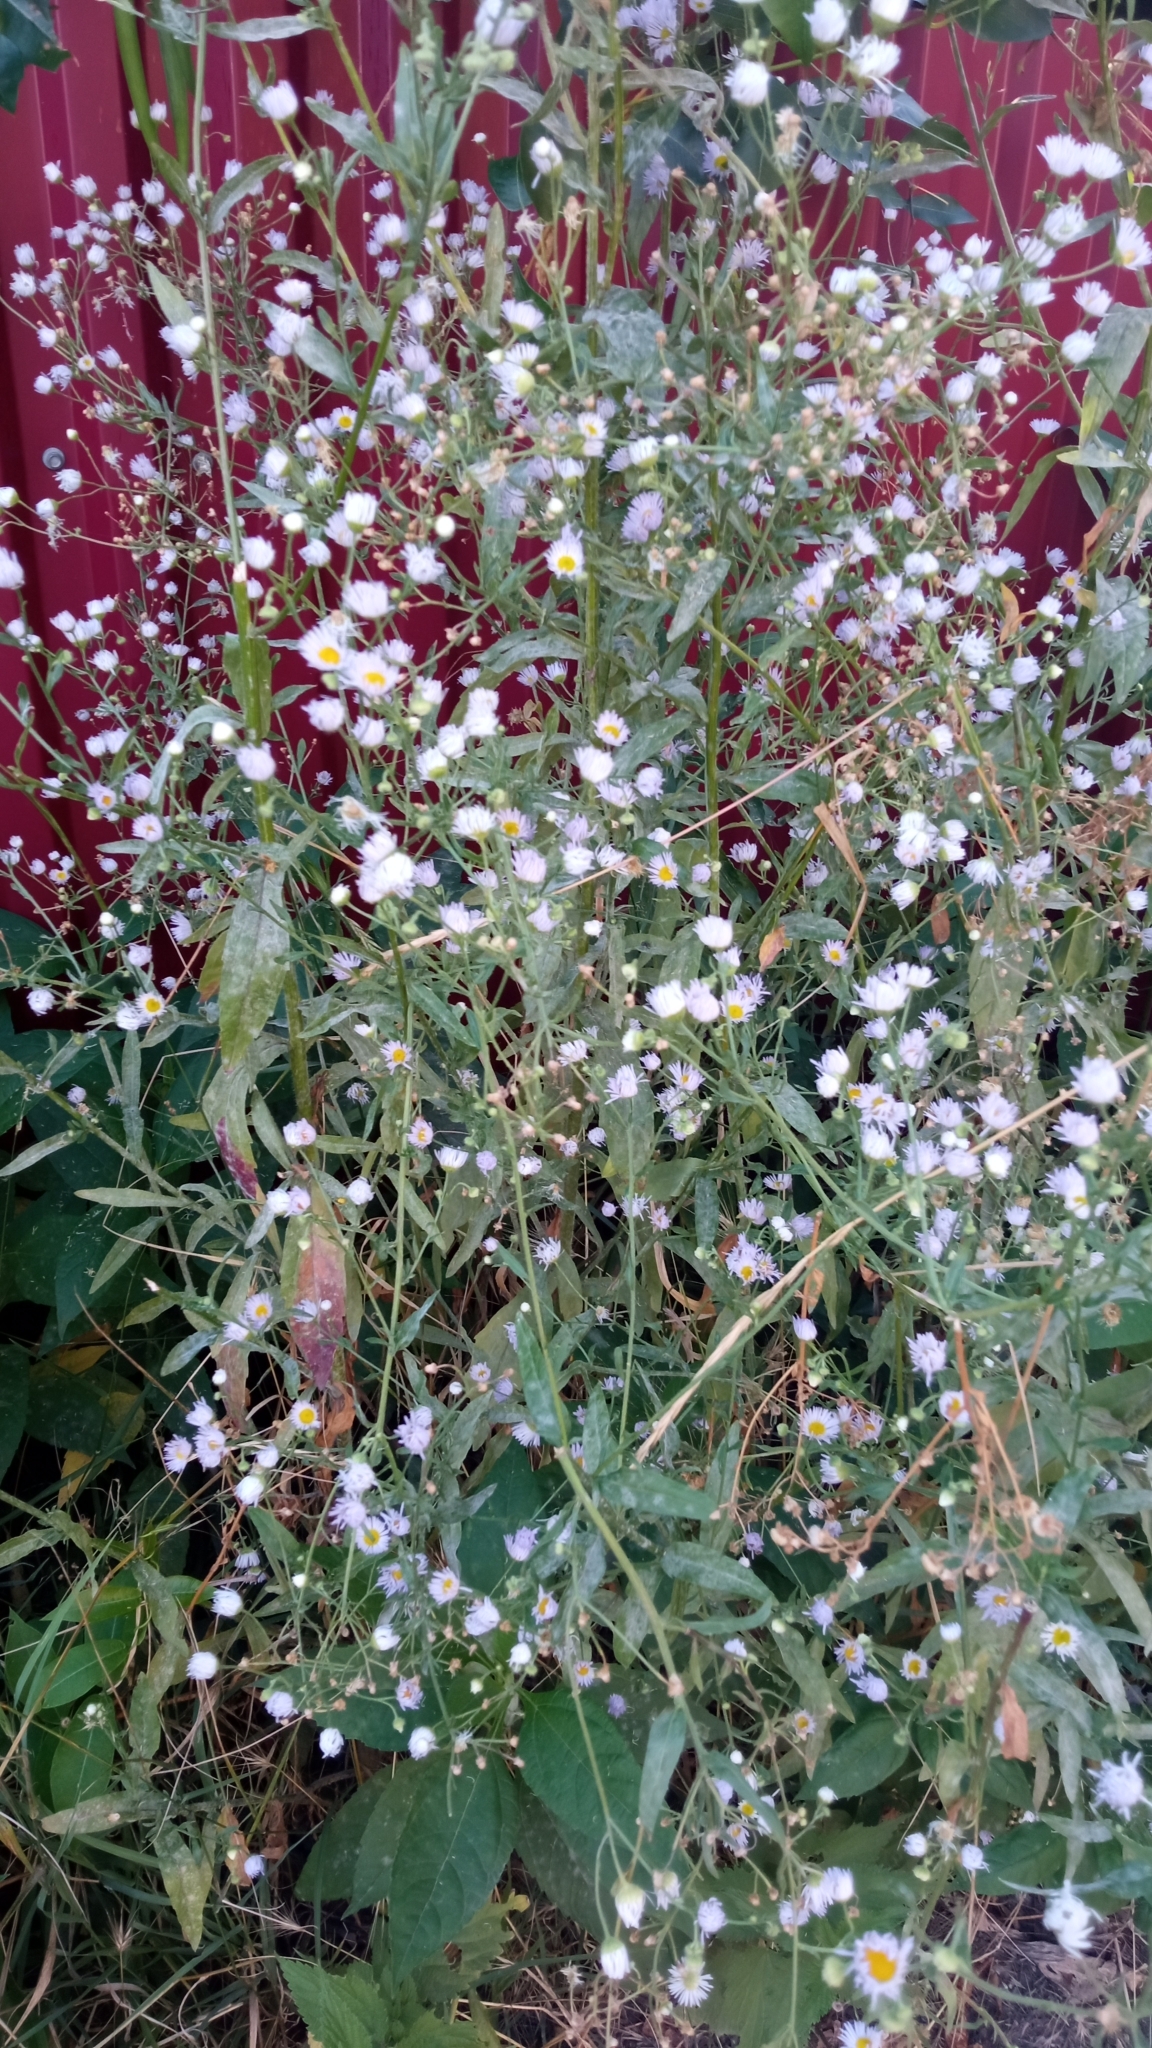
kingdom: Plantae
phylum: Tracheophyta
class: Magnoliopsida
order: Asterales
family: Asteraceae
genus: Erigeron
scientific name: Erigeron annuus
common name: Tall fleabane
